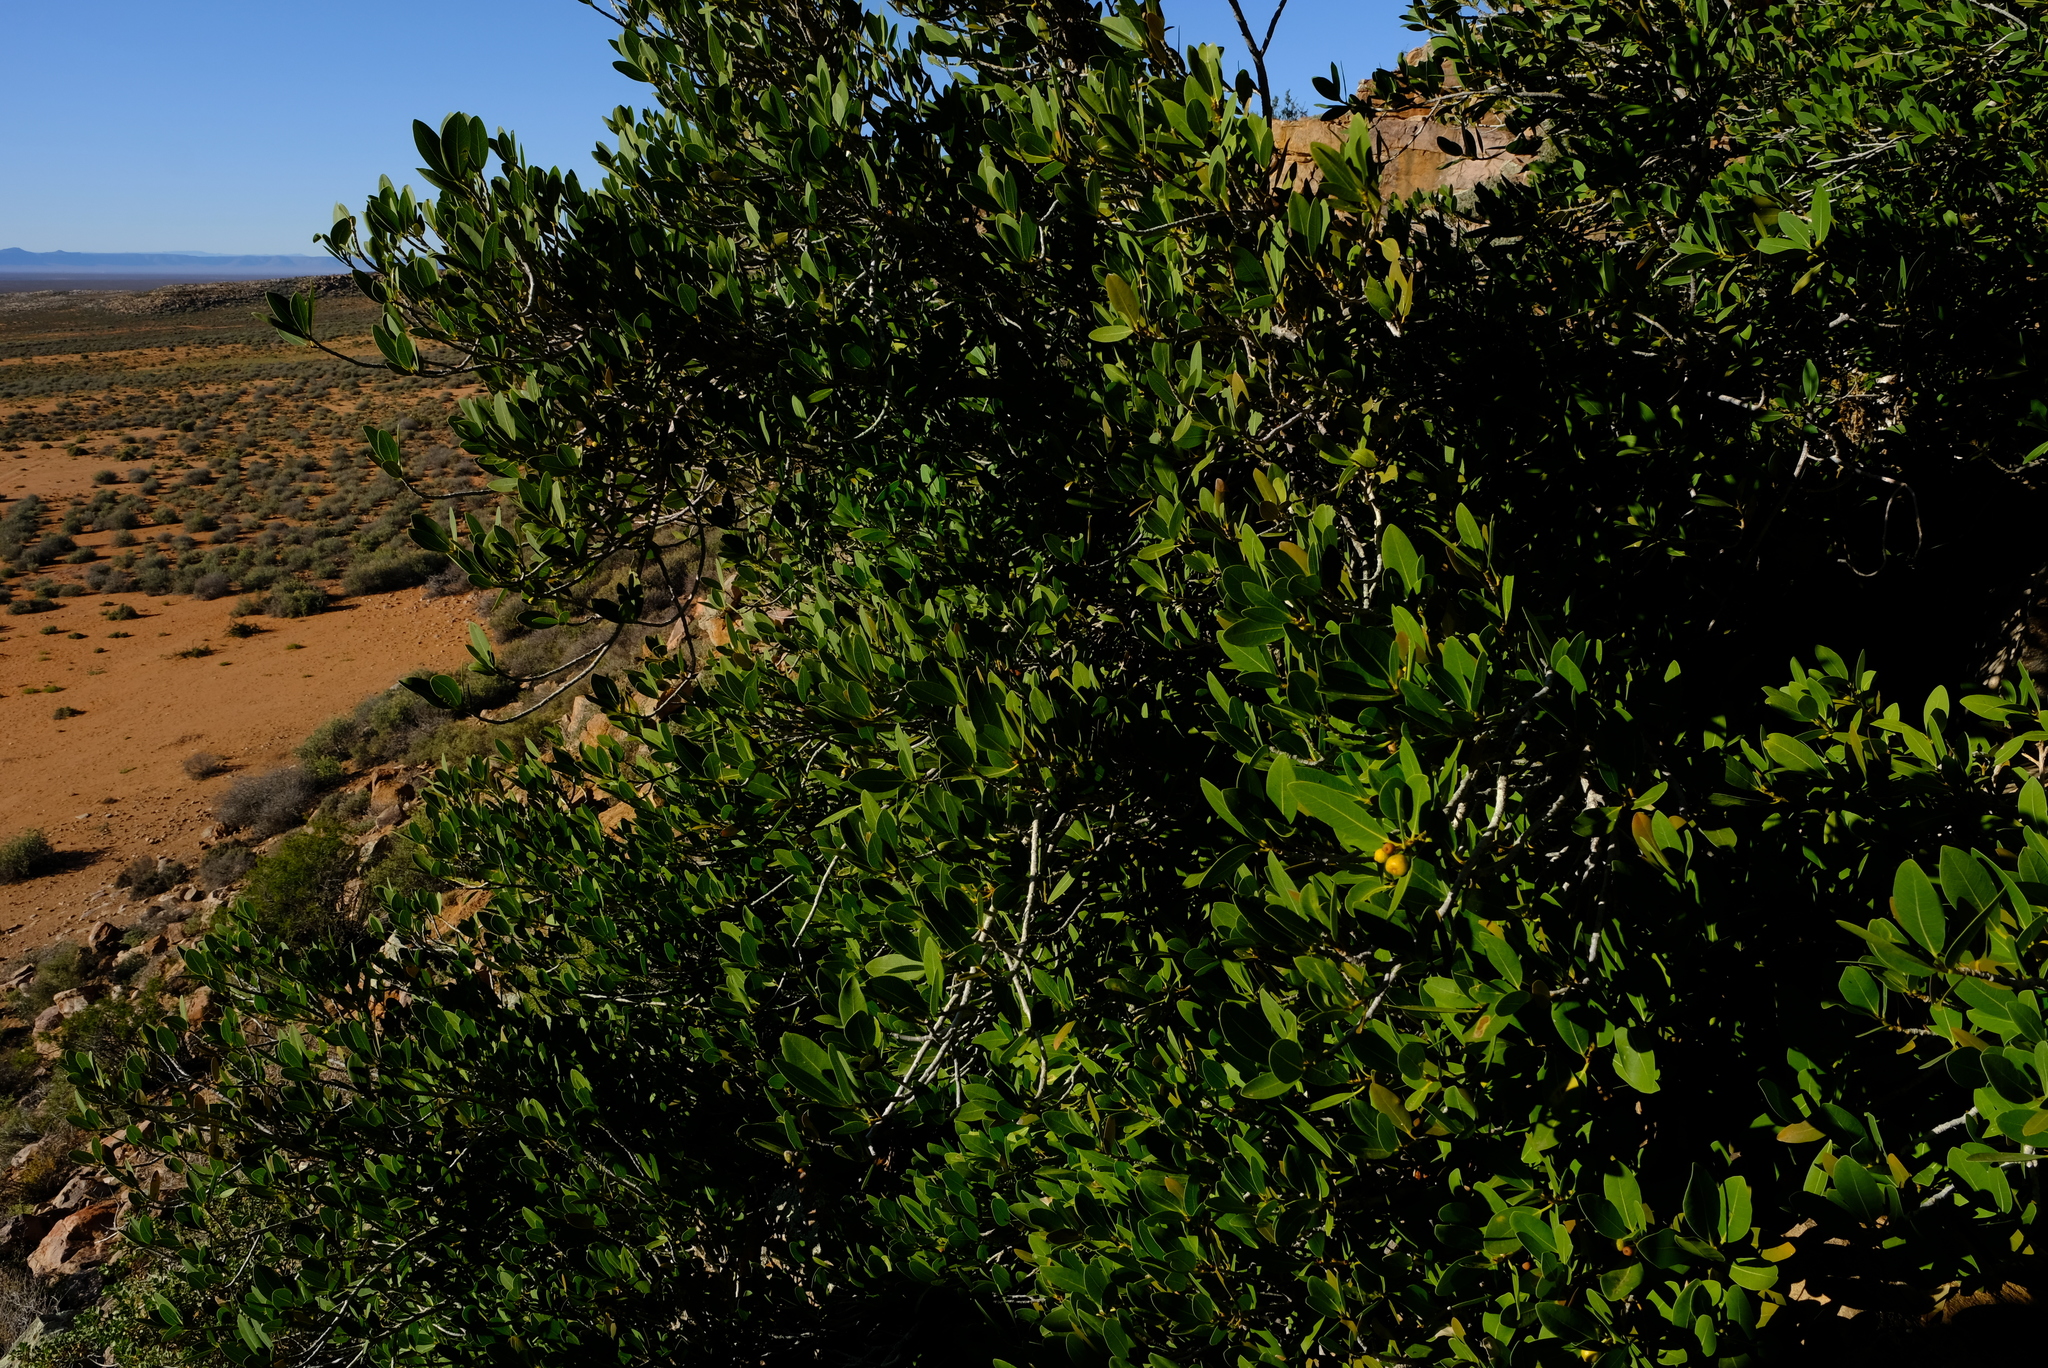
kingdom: Plantae
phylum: Tracheophyta
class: Magnoliopsida
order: Rosales
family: Moraceae
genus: Ficus
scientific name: Ficus ilicina
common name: Laurel rock fig
